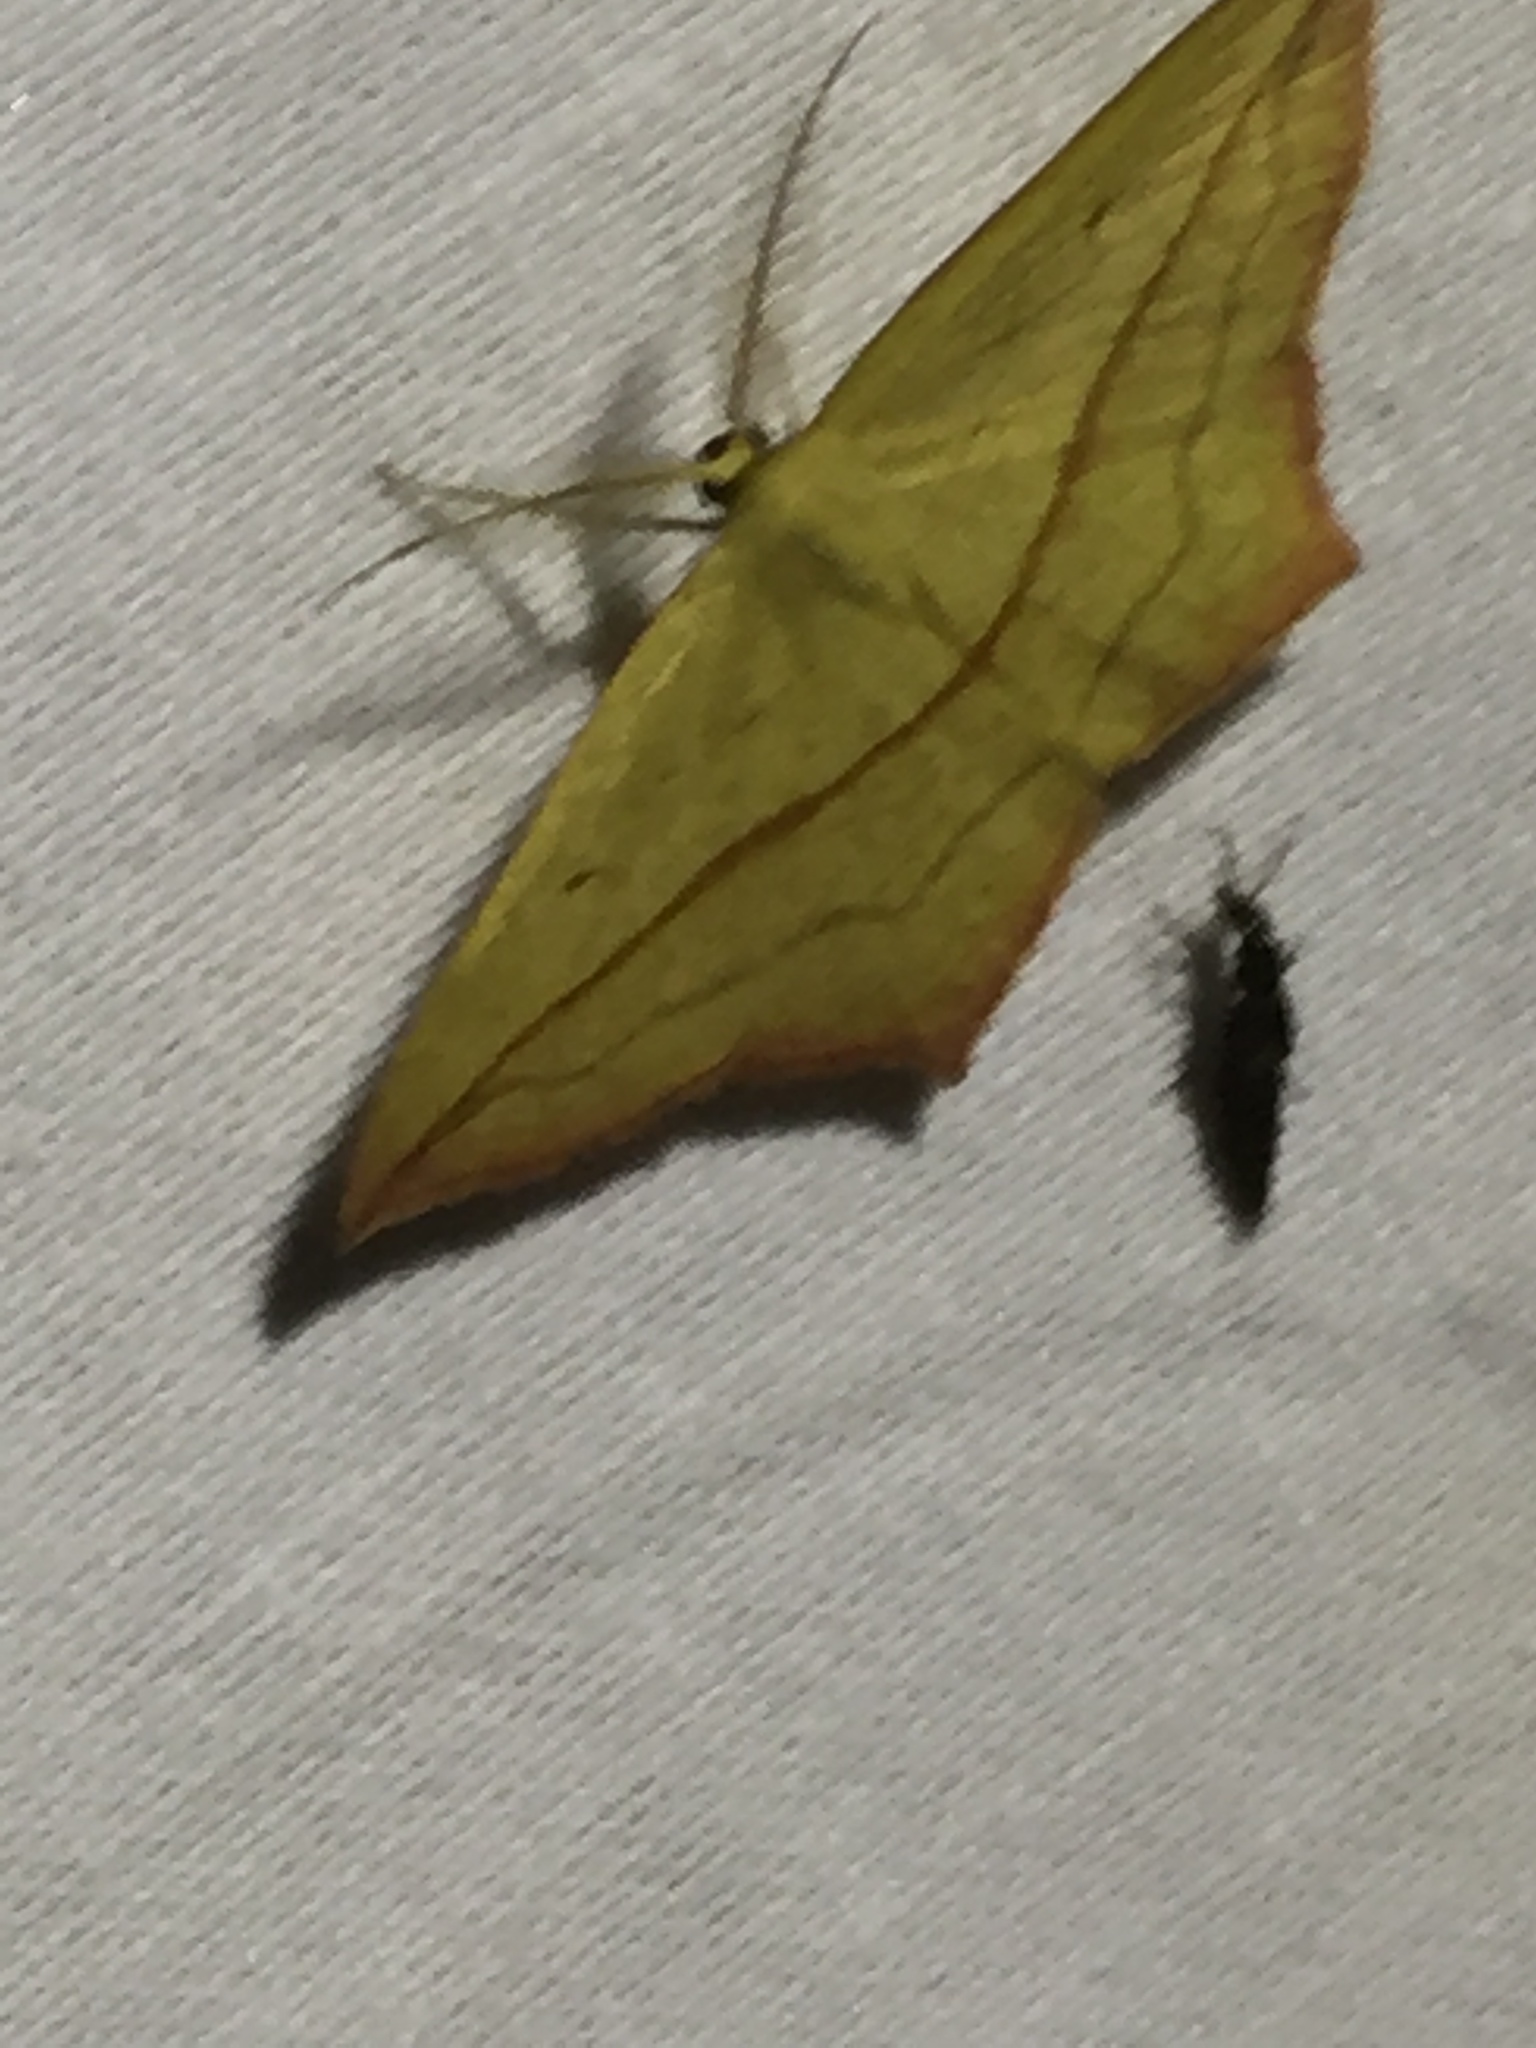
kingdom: Animalia
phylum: Arthropoda
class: Insecta
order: Lepidoptera
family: Geometridae
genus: Timandra
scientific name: Timandra comae
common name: Blood-vein
